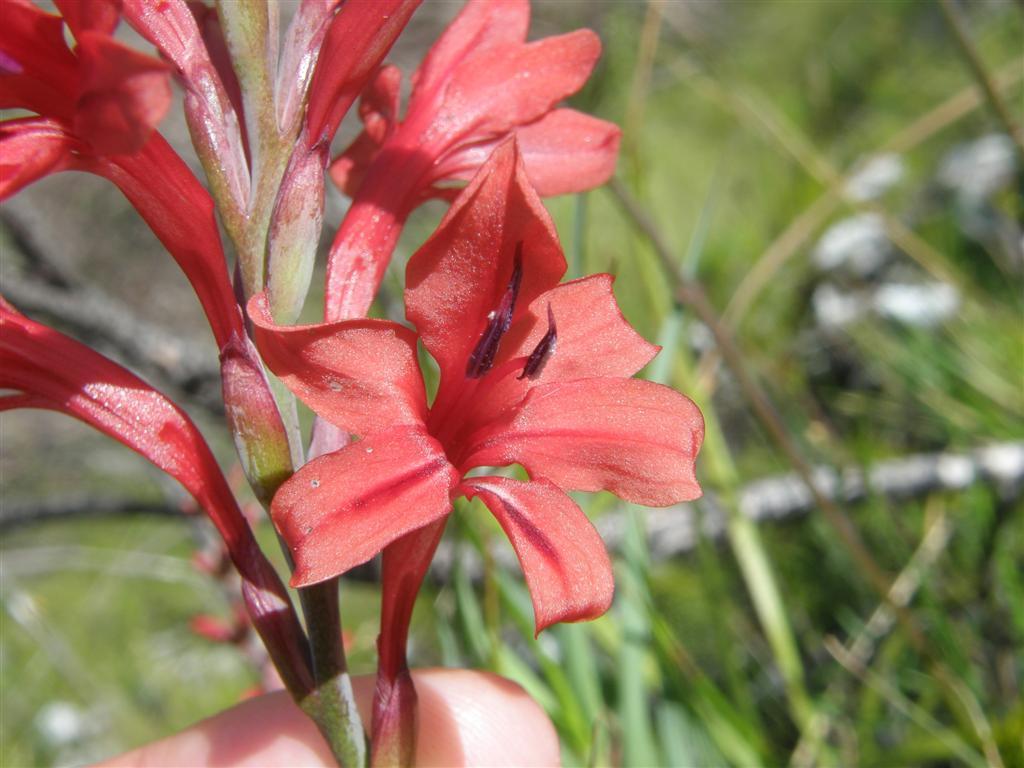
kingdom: Plantae
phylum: Tracheophyta
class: Liliopsida
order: Asparagales
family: Iridaceae
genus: Tritoniopsis
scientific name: Tritoniopsis pulchra
